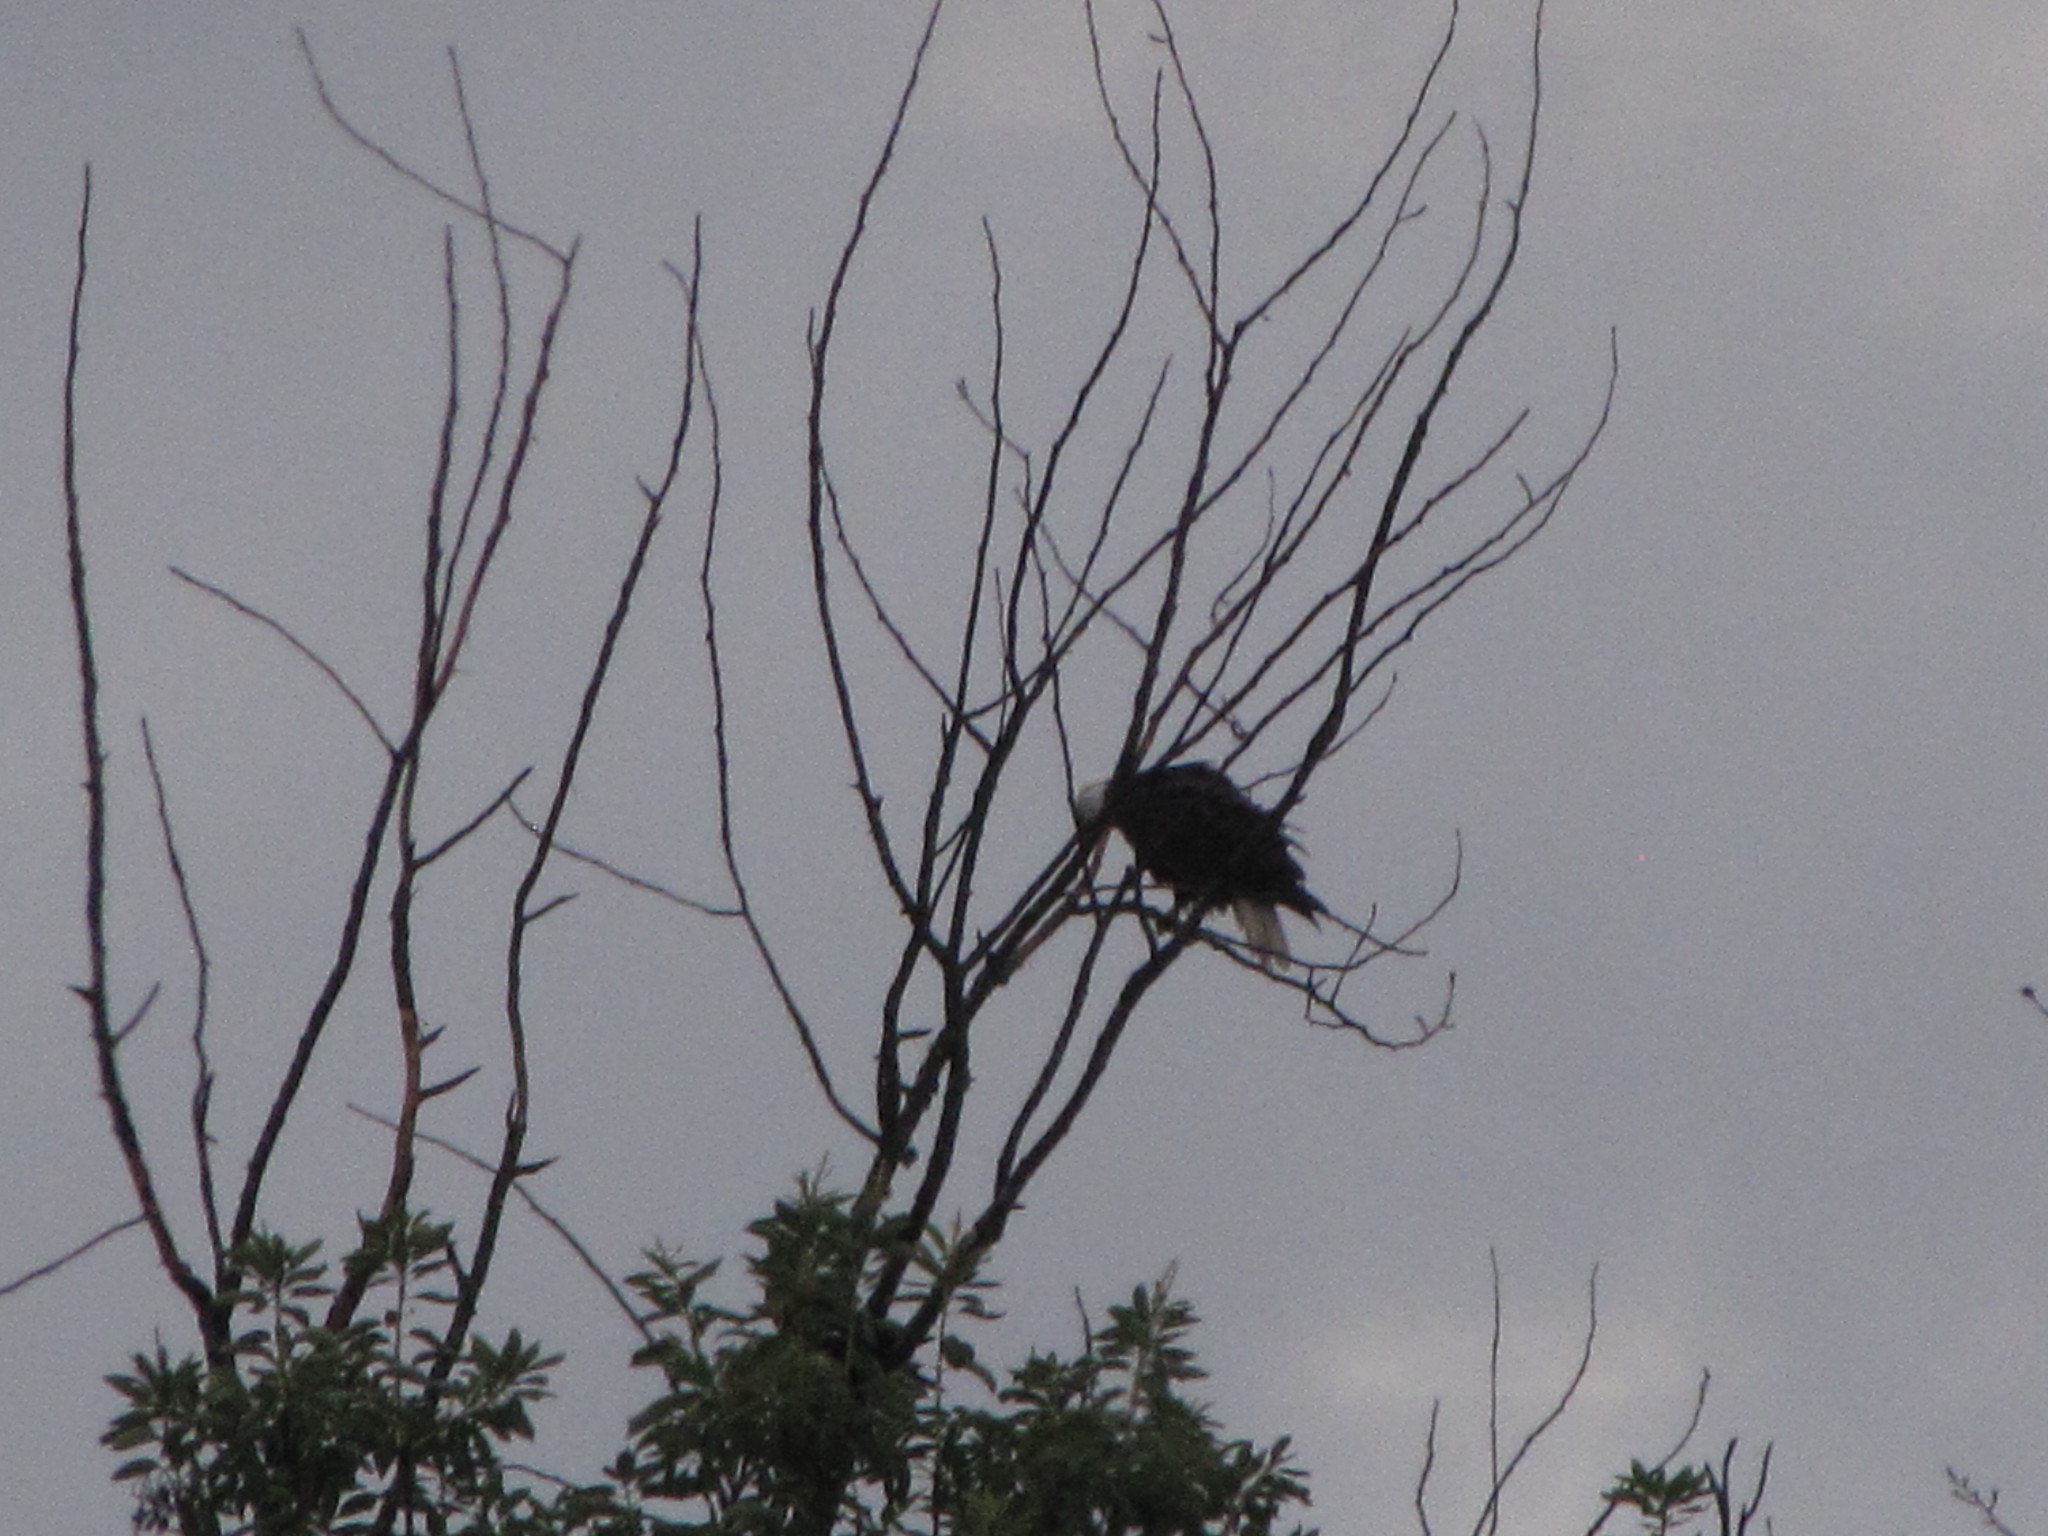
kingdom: Animalia
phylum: Chordata
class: Aves
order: Accipitriformes
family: Accipitridae
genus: Haliaeetus
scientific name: Haliaeetus leucocephalus
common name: Bald eagle
